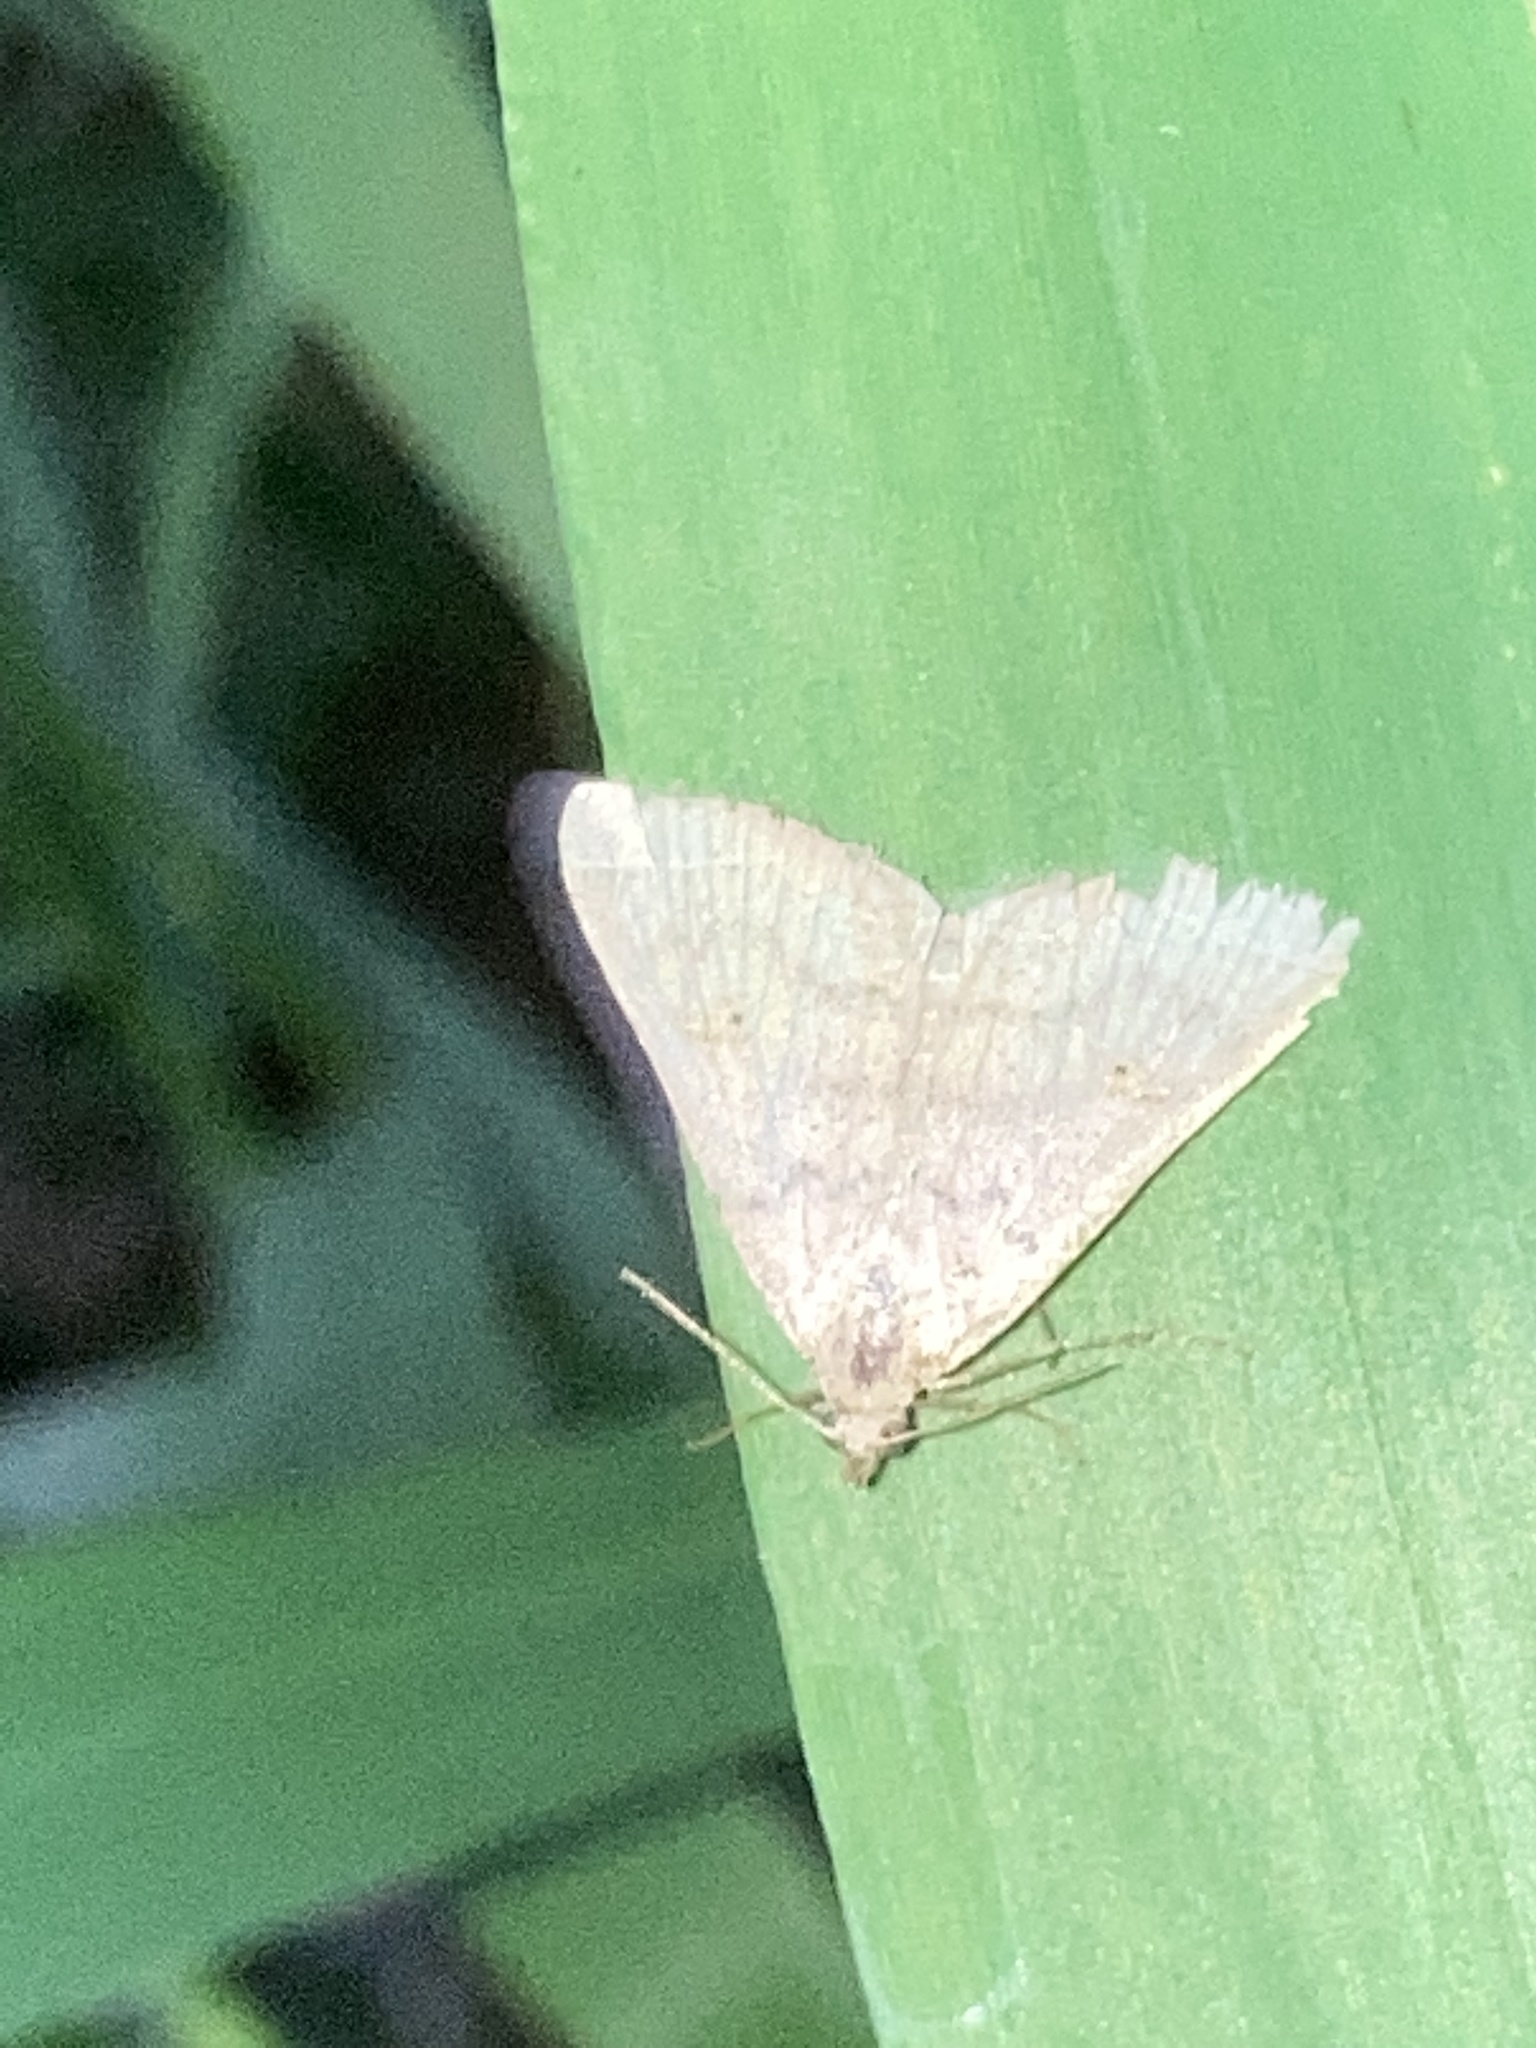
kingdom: Animalia
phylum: Arthropoda
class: Insecta
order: Lepidoptera
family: Erebidae
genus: Bleptina
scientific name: Bleptina caradrinalis
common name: Bent-winged owlet
